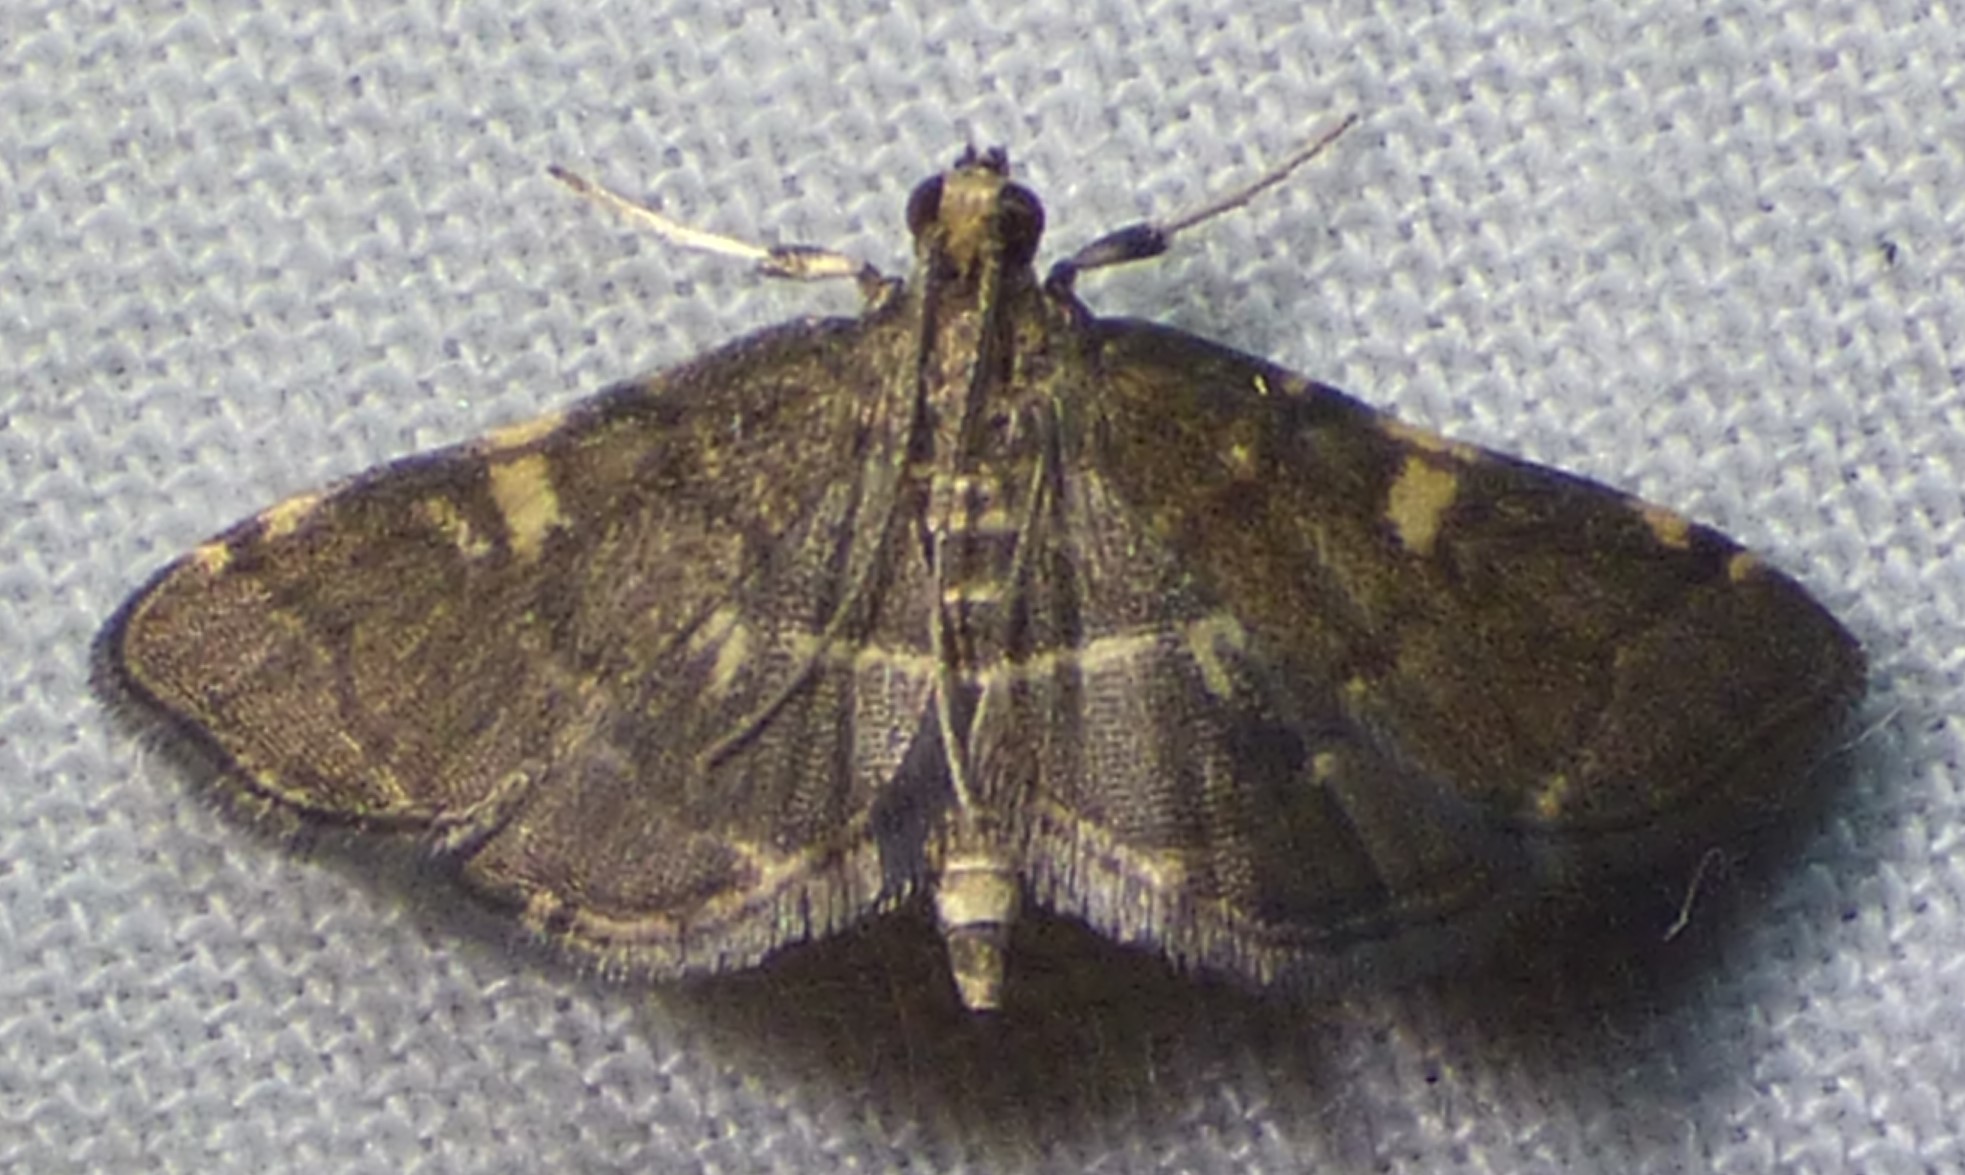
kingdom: Animalia
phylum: Arthropoda
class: Insecta
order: Lepidoptera
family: Crambidae
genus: Anageshna
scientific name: Anageshna primordialis
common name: Yellow-spotted webworm moth
